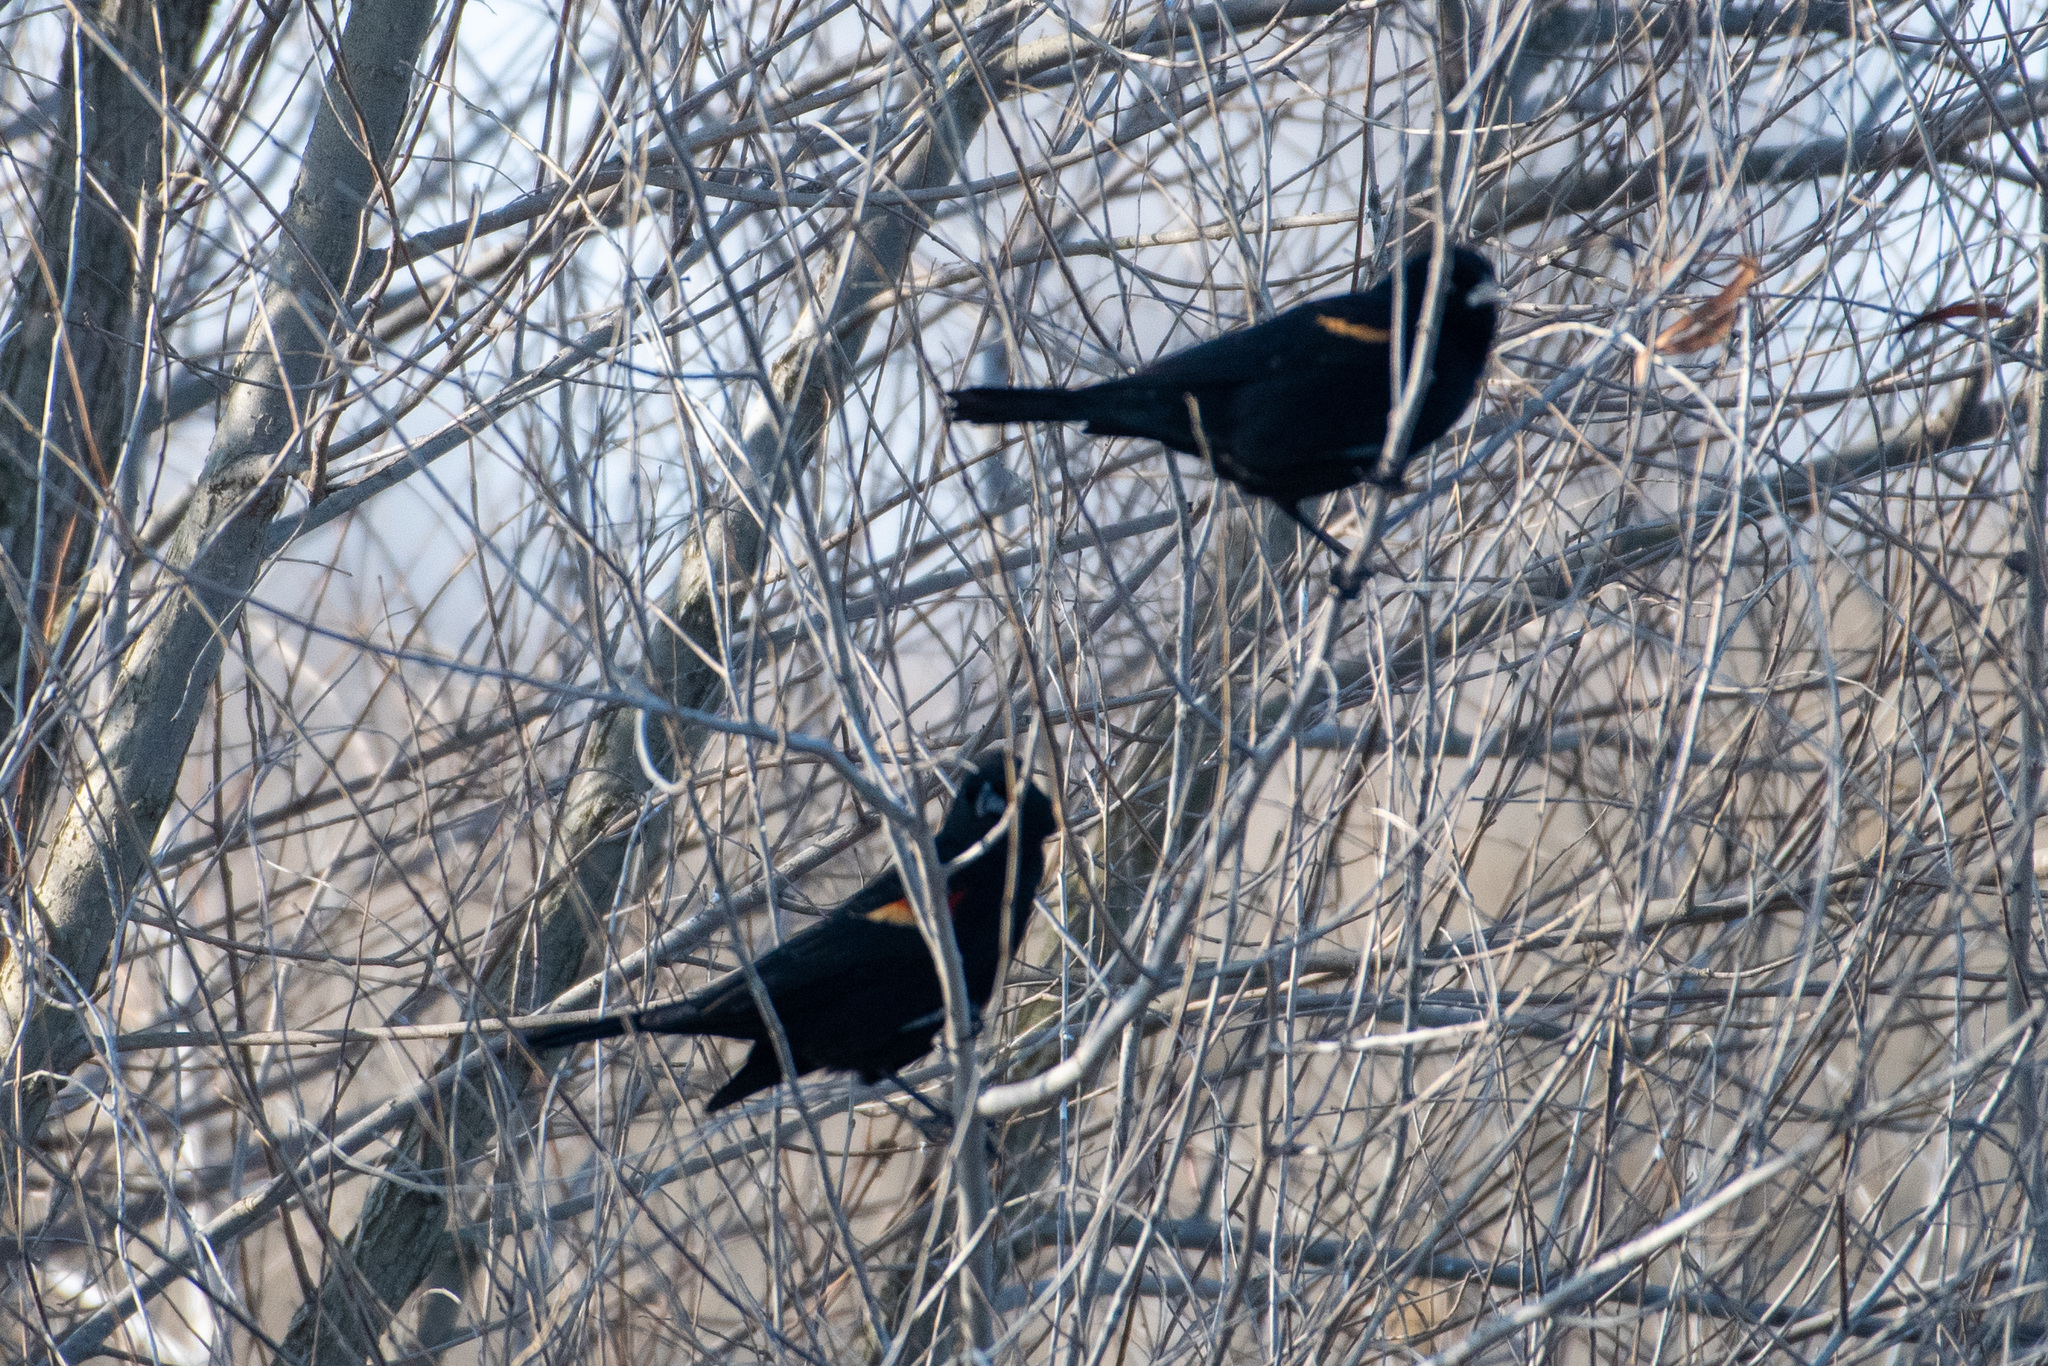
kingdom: Animalia
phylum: Chordata
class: Aves
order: Passeriformes
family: Icteridae
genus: Agelaius
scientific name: Agelaius phoeniceus
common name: Red-winged blackbird
